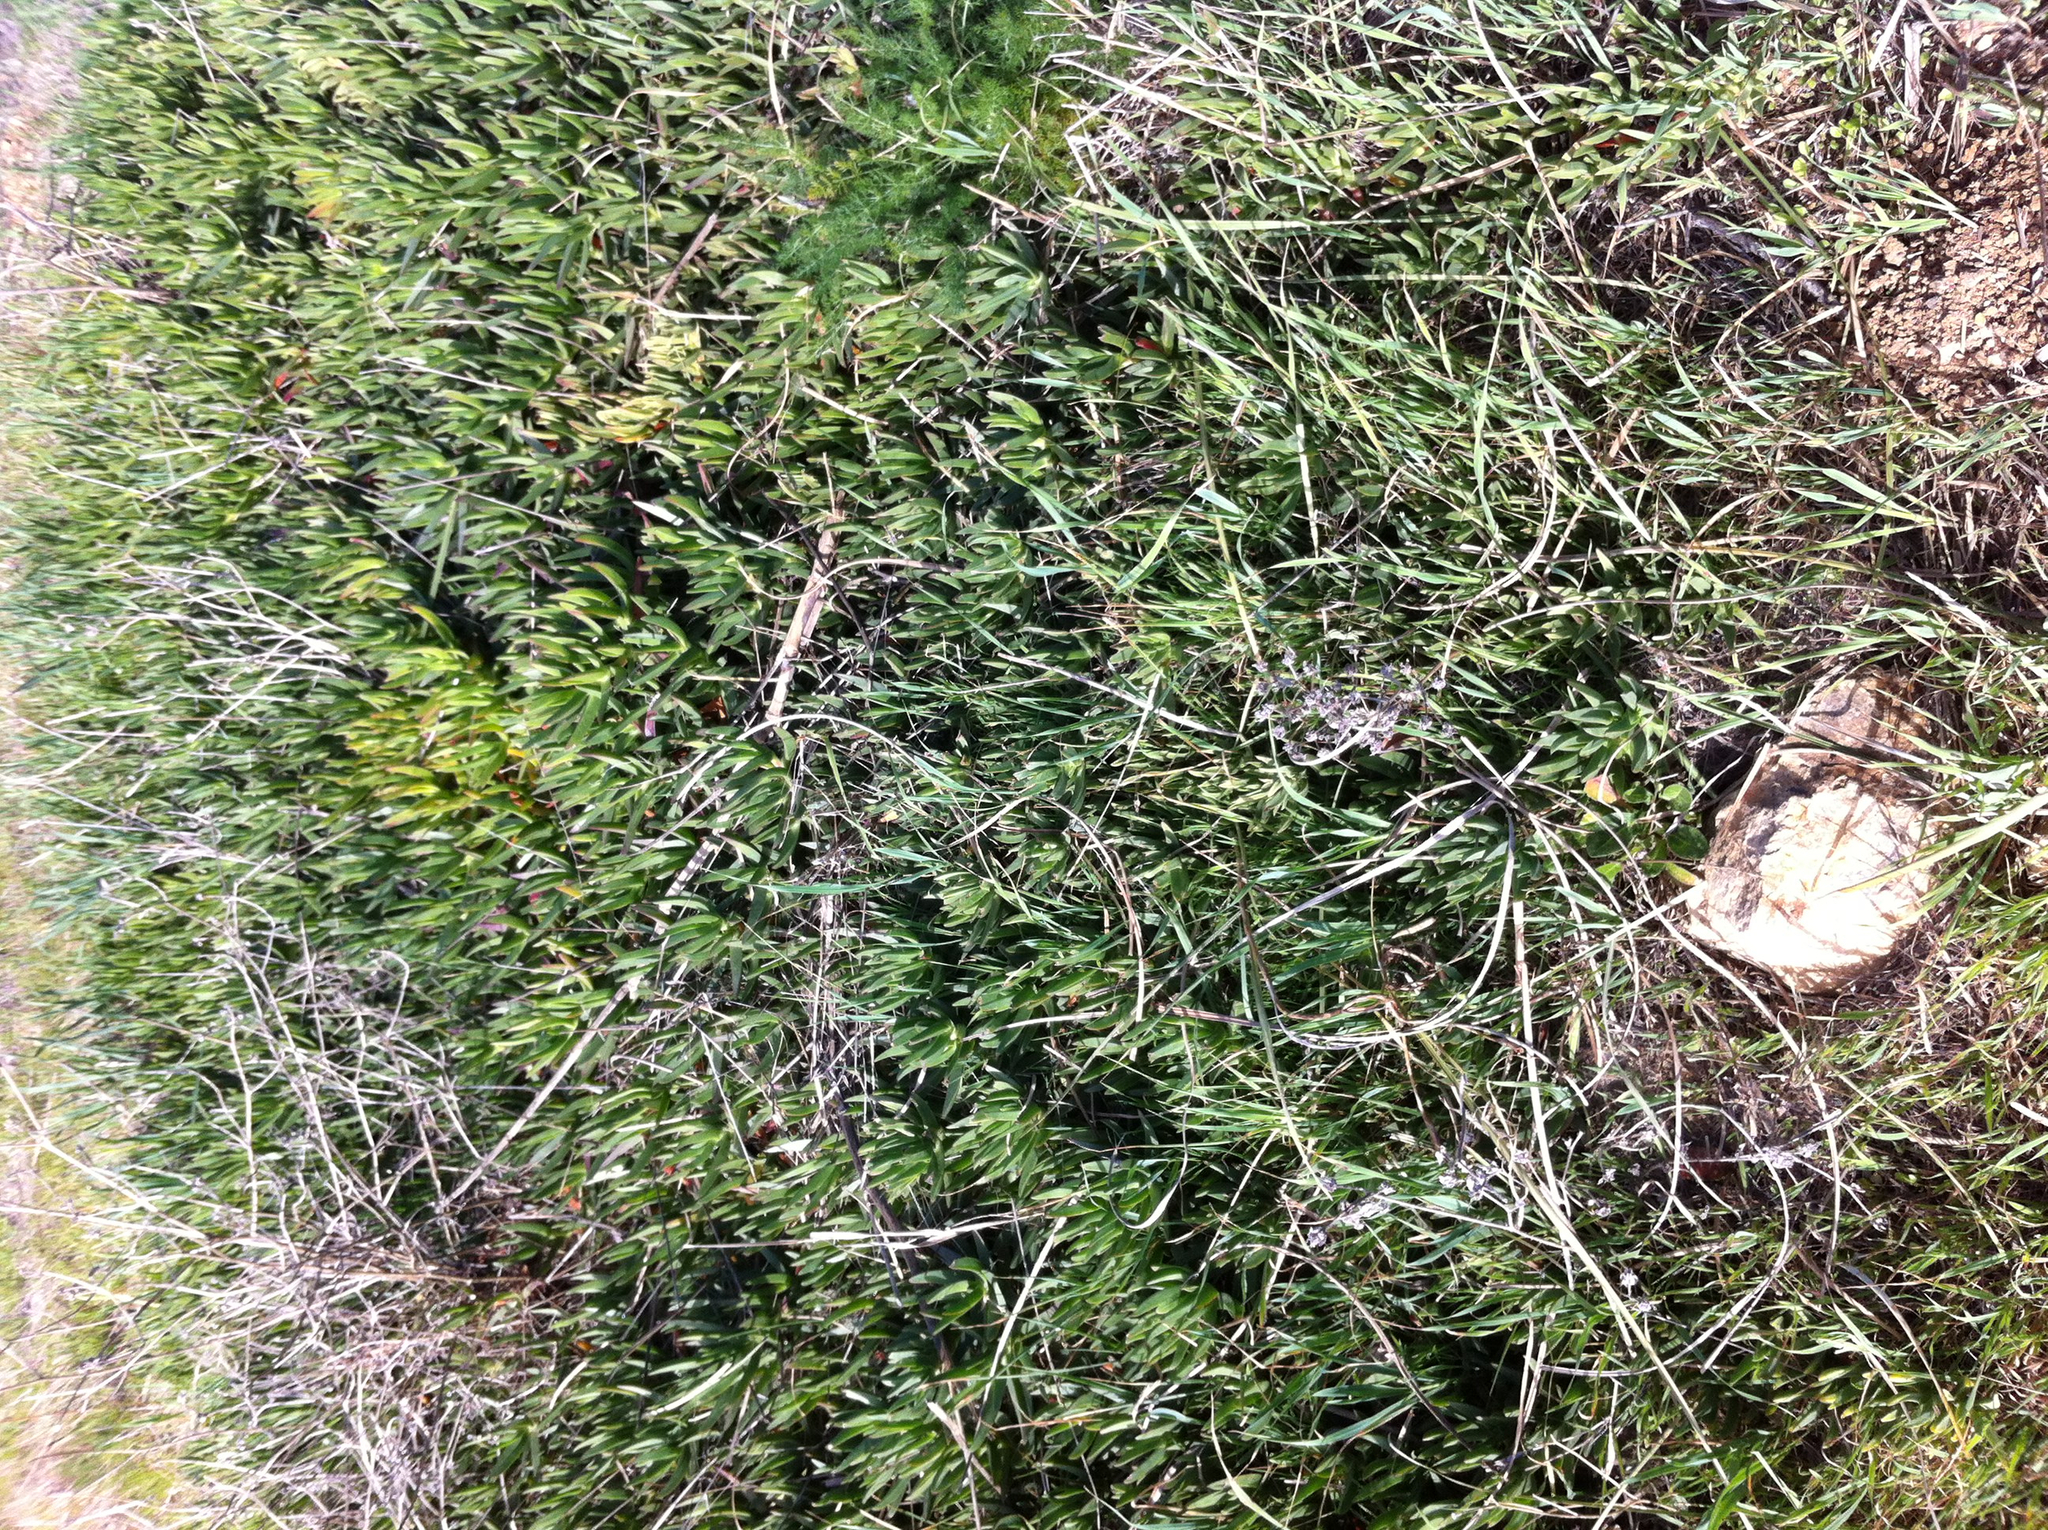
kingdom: Plantae
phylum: Tracheophyta
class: Magnoliopsida
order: Caryophyllales
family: Aizoaceae
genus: Carpobrotus
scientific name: Carpobrotus edulis
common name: Hottentot-fig
